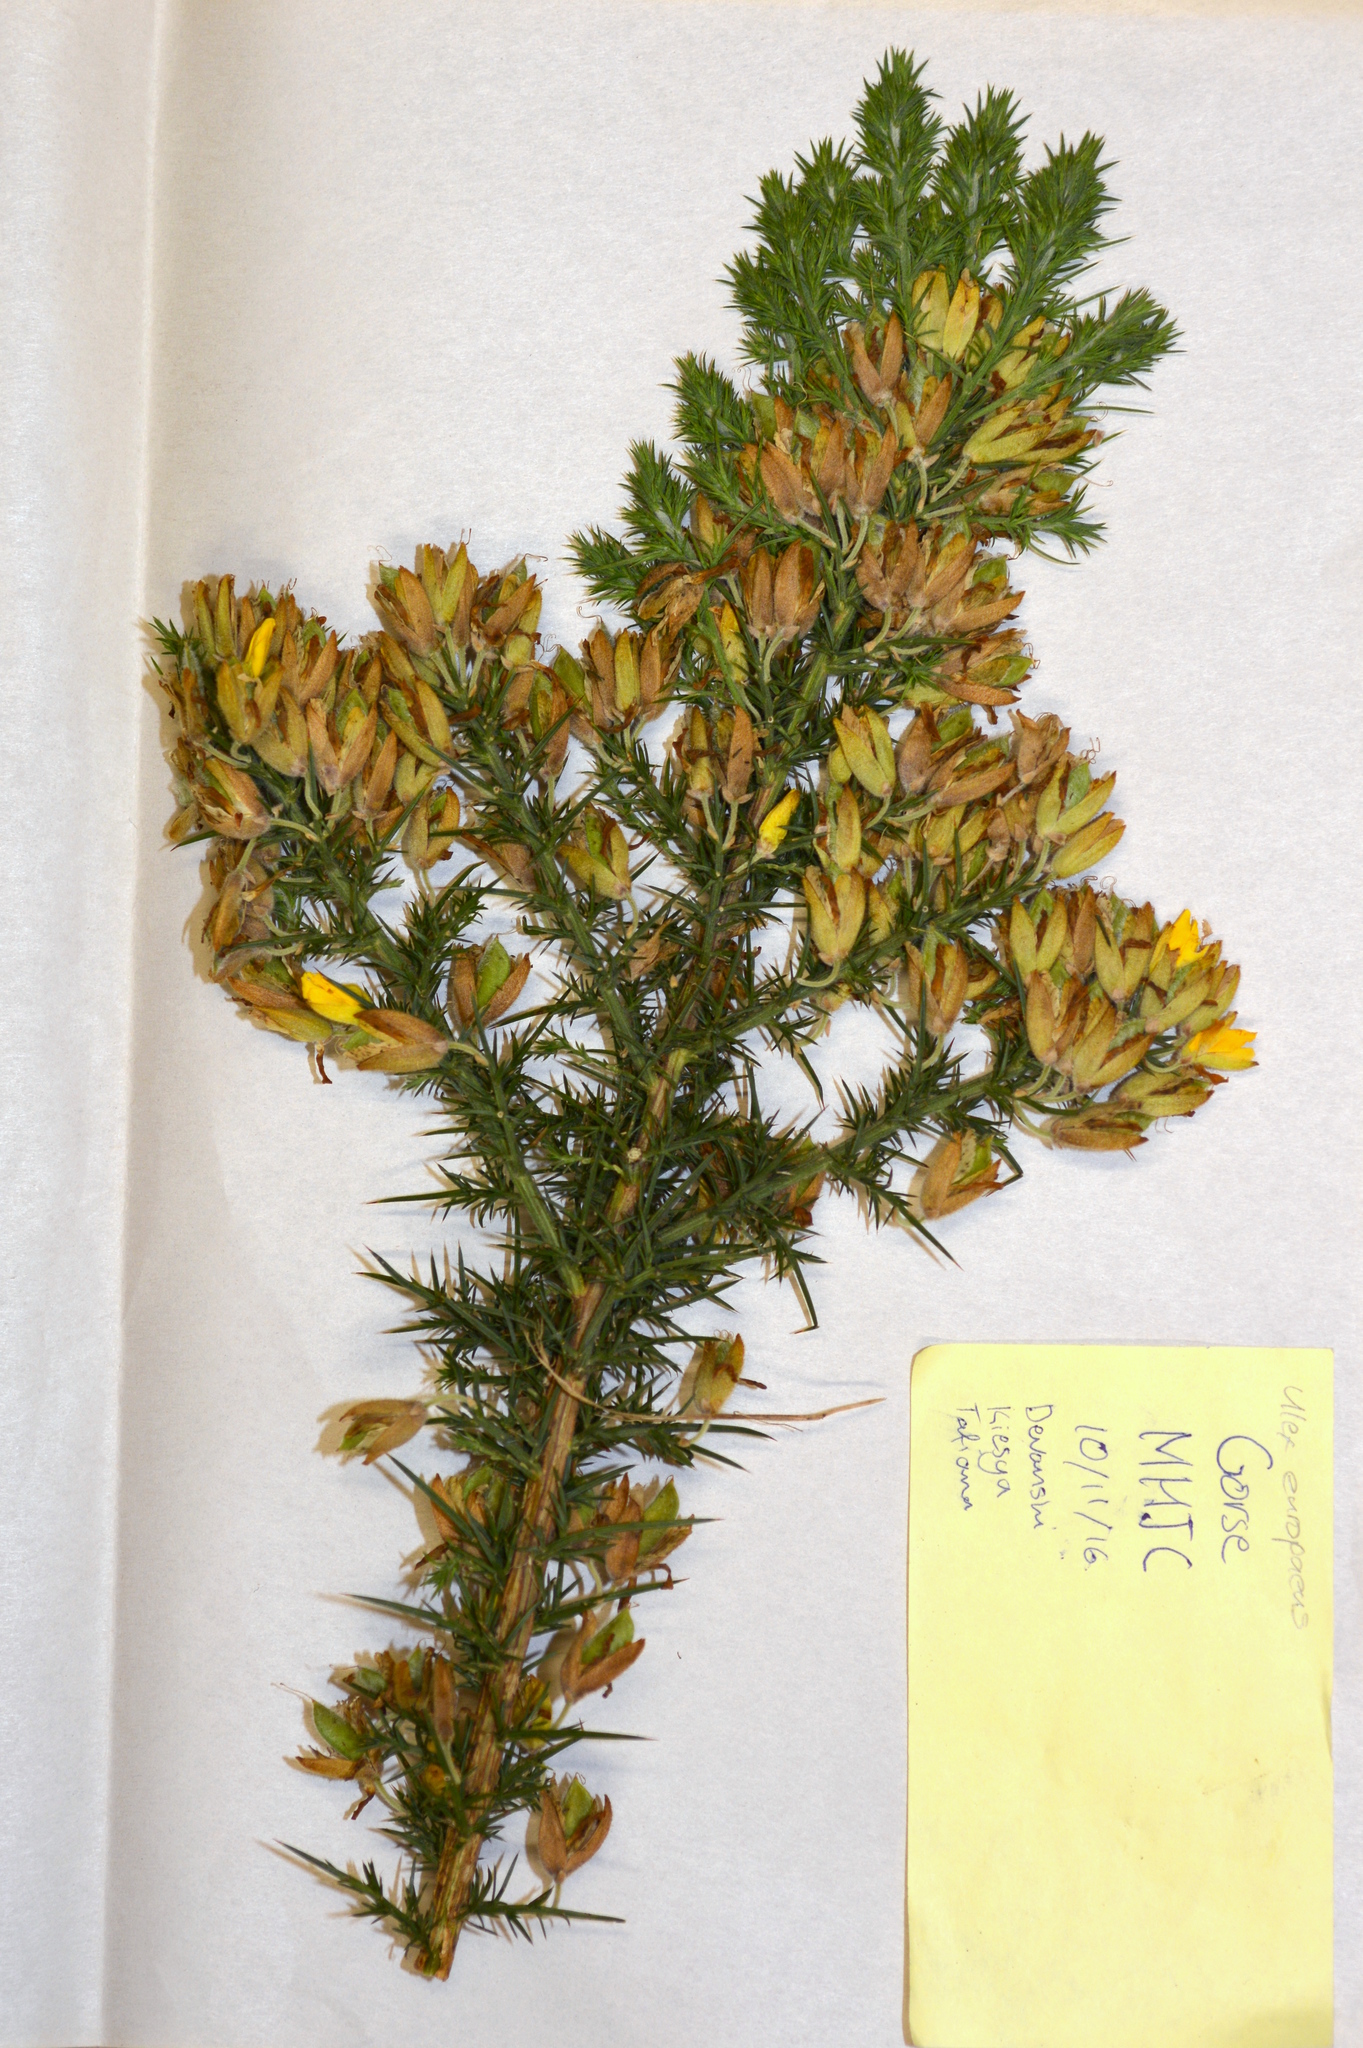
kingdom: Plantae
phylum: Tracheophyta
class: Magnoliopsida
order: Fabales
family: Fabaceae
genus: Ulex
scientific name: Ulex europaeus
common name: Common gorse
